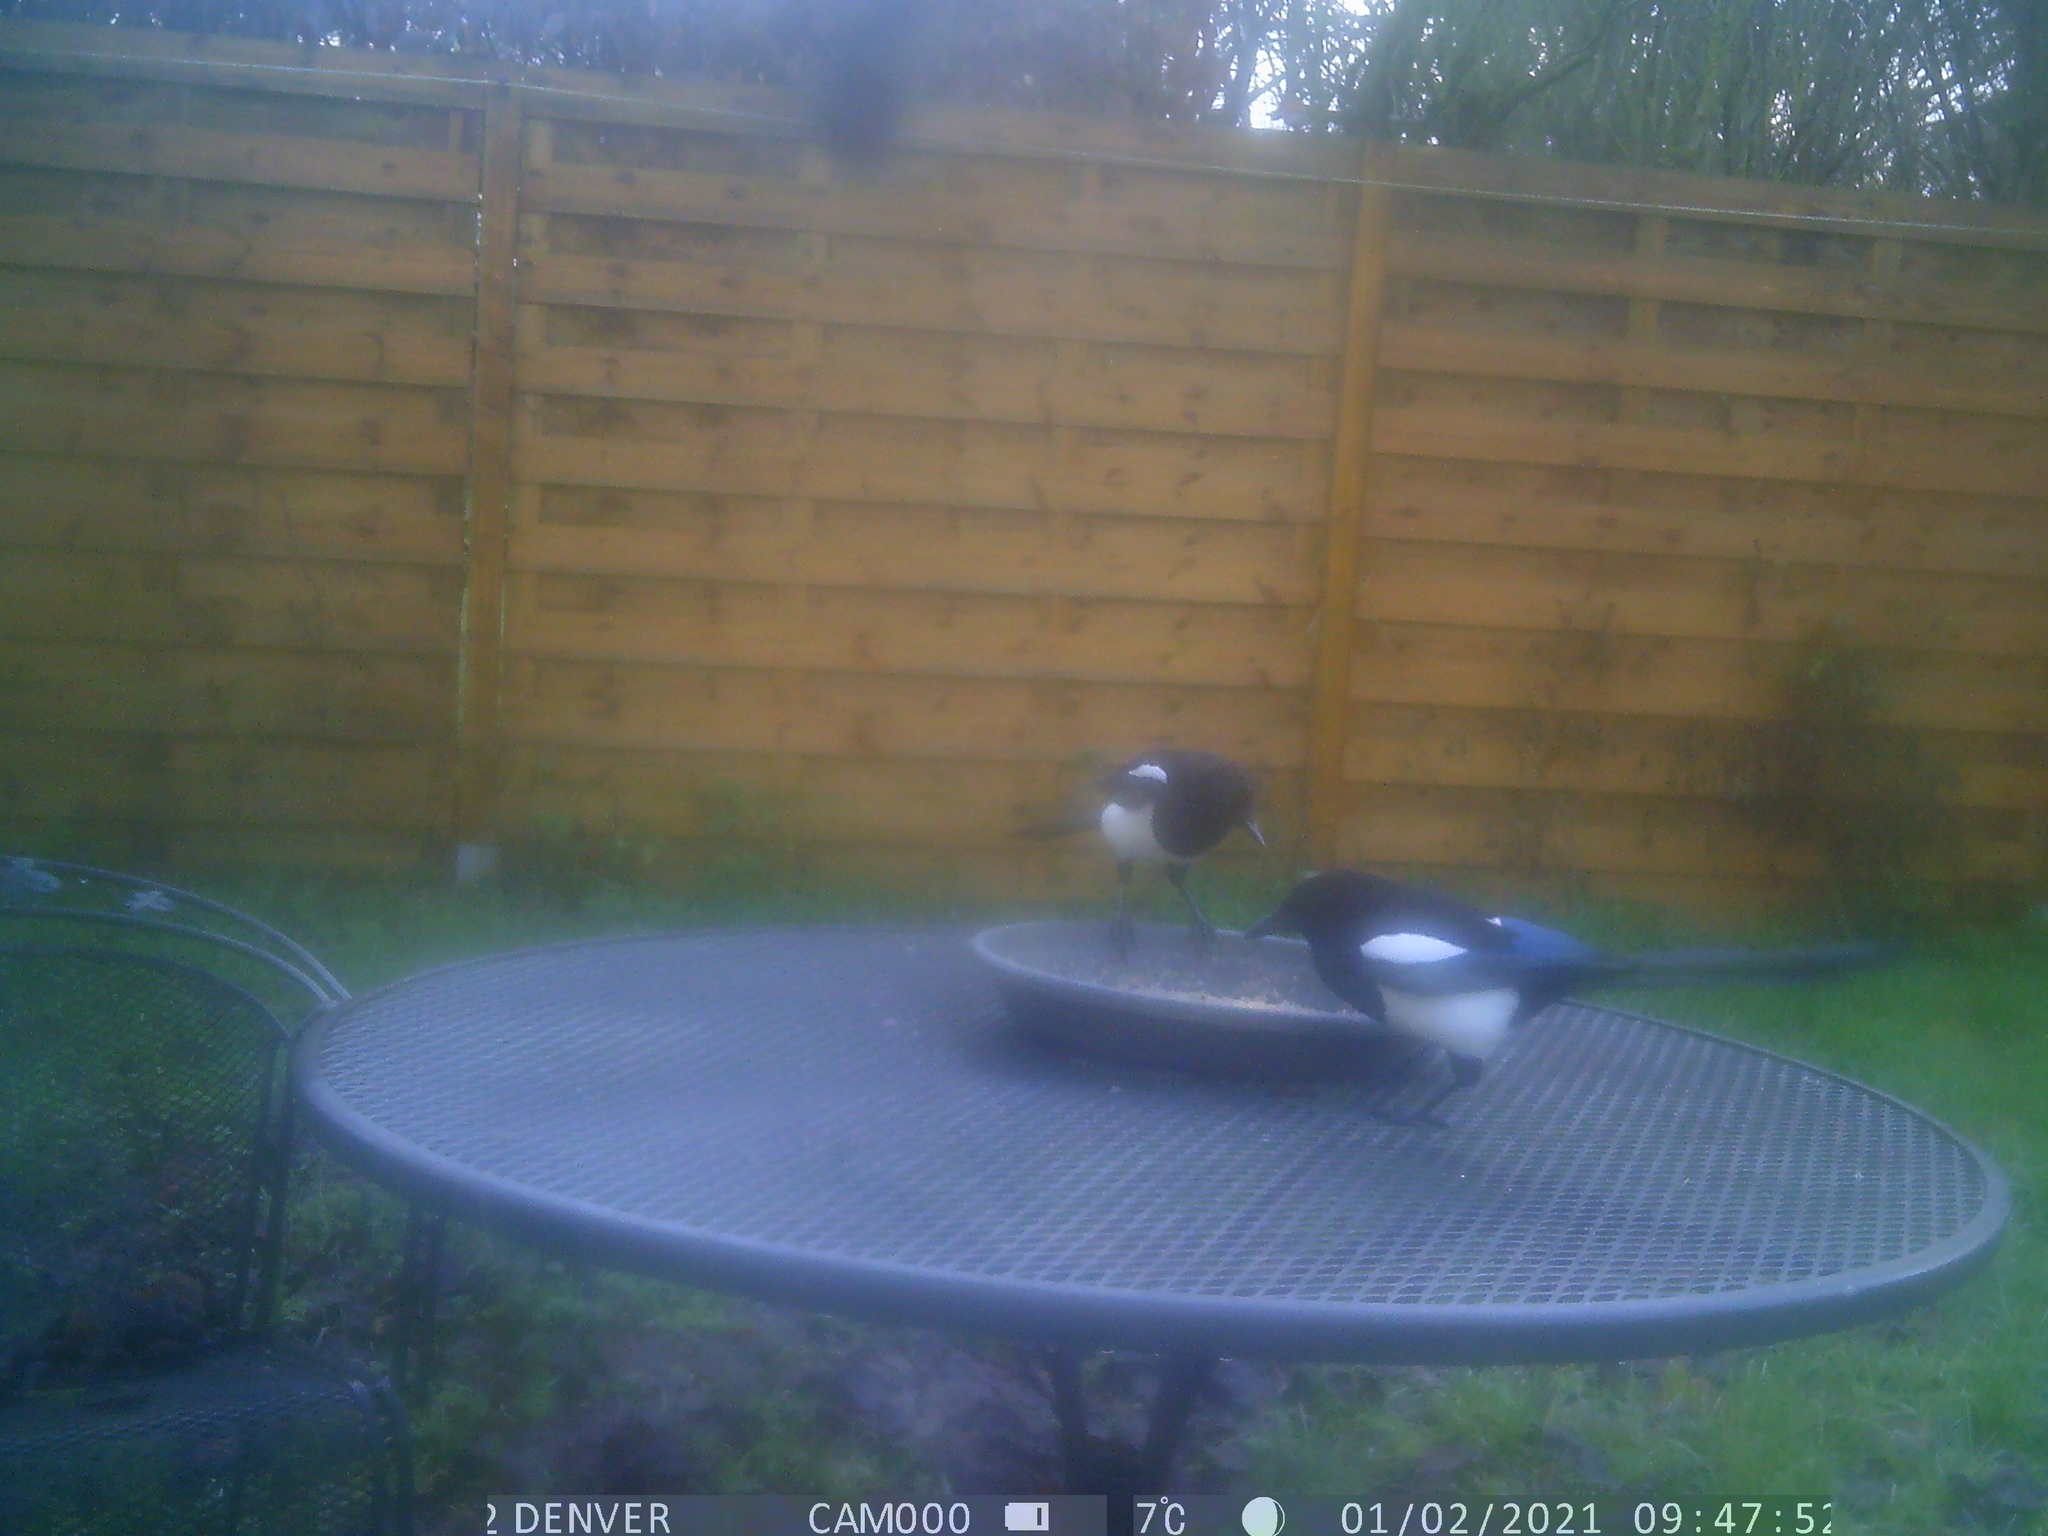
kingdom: Animalia
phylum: Chordata
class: Aves
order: Passeriformes
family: Corvidae
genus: Pica
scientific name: Pica pica
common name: Eurasian magpie
